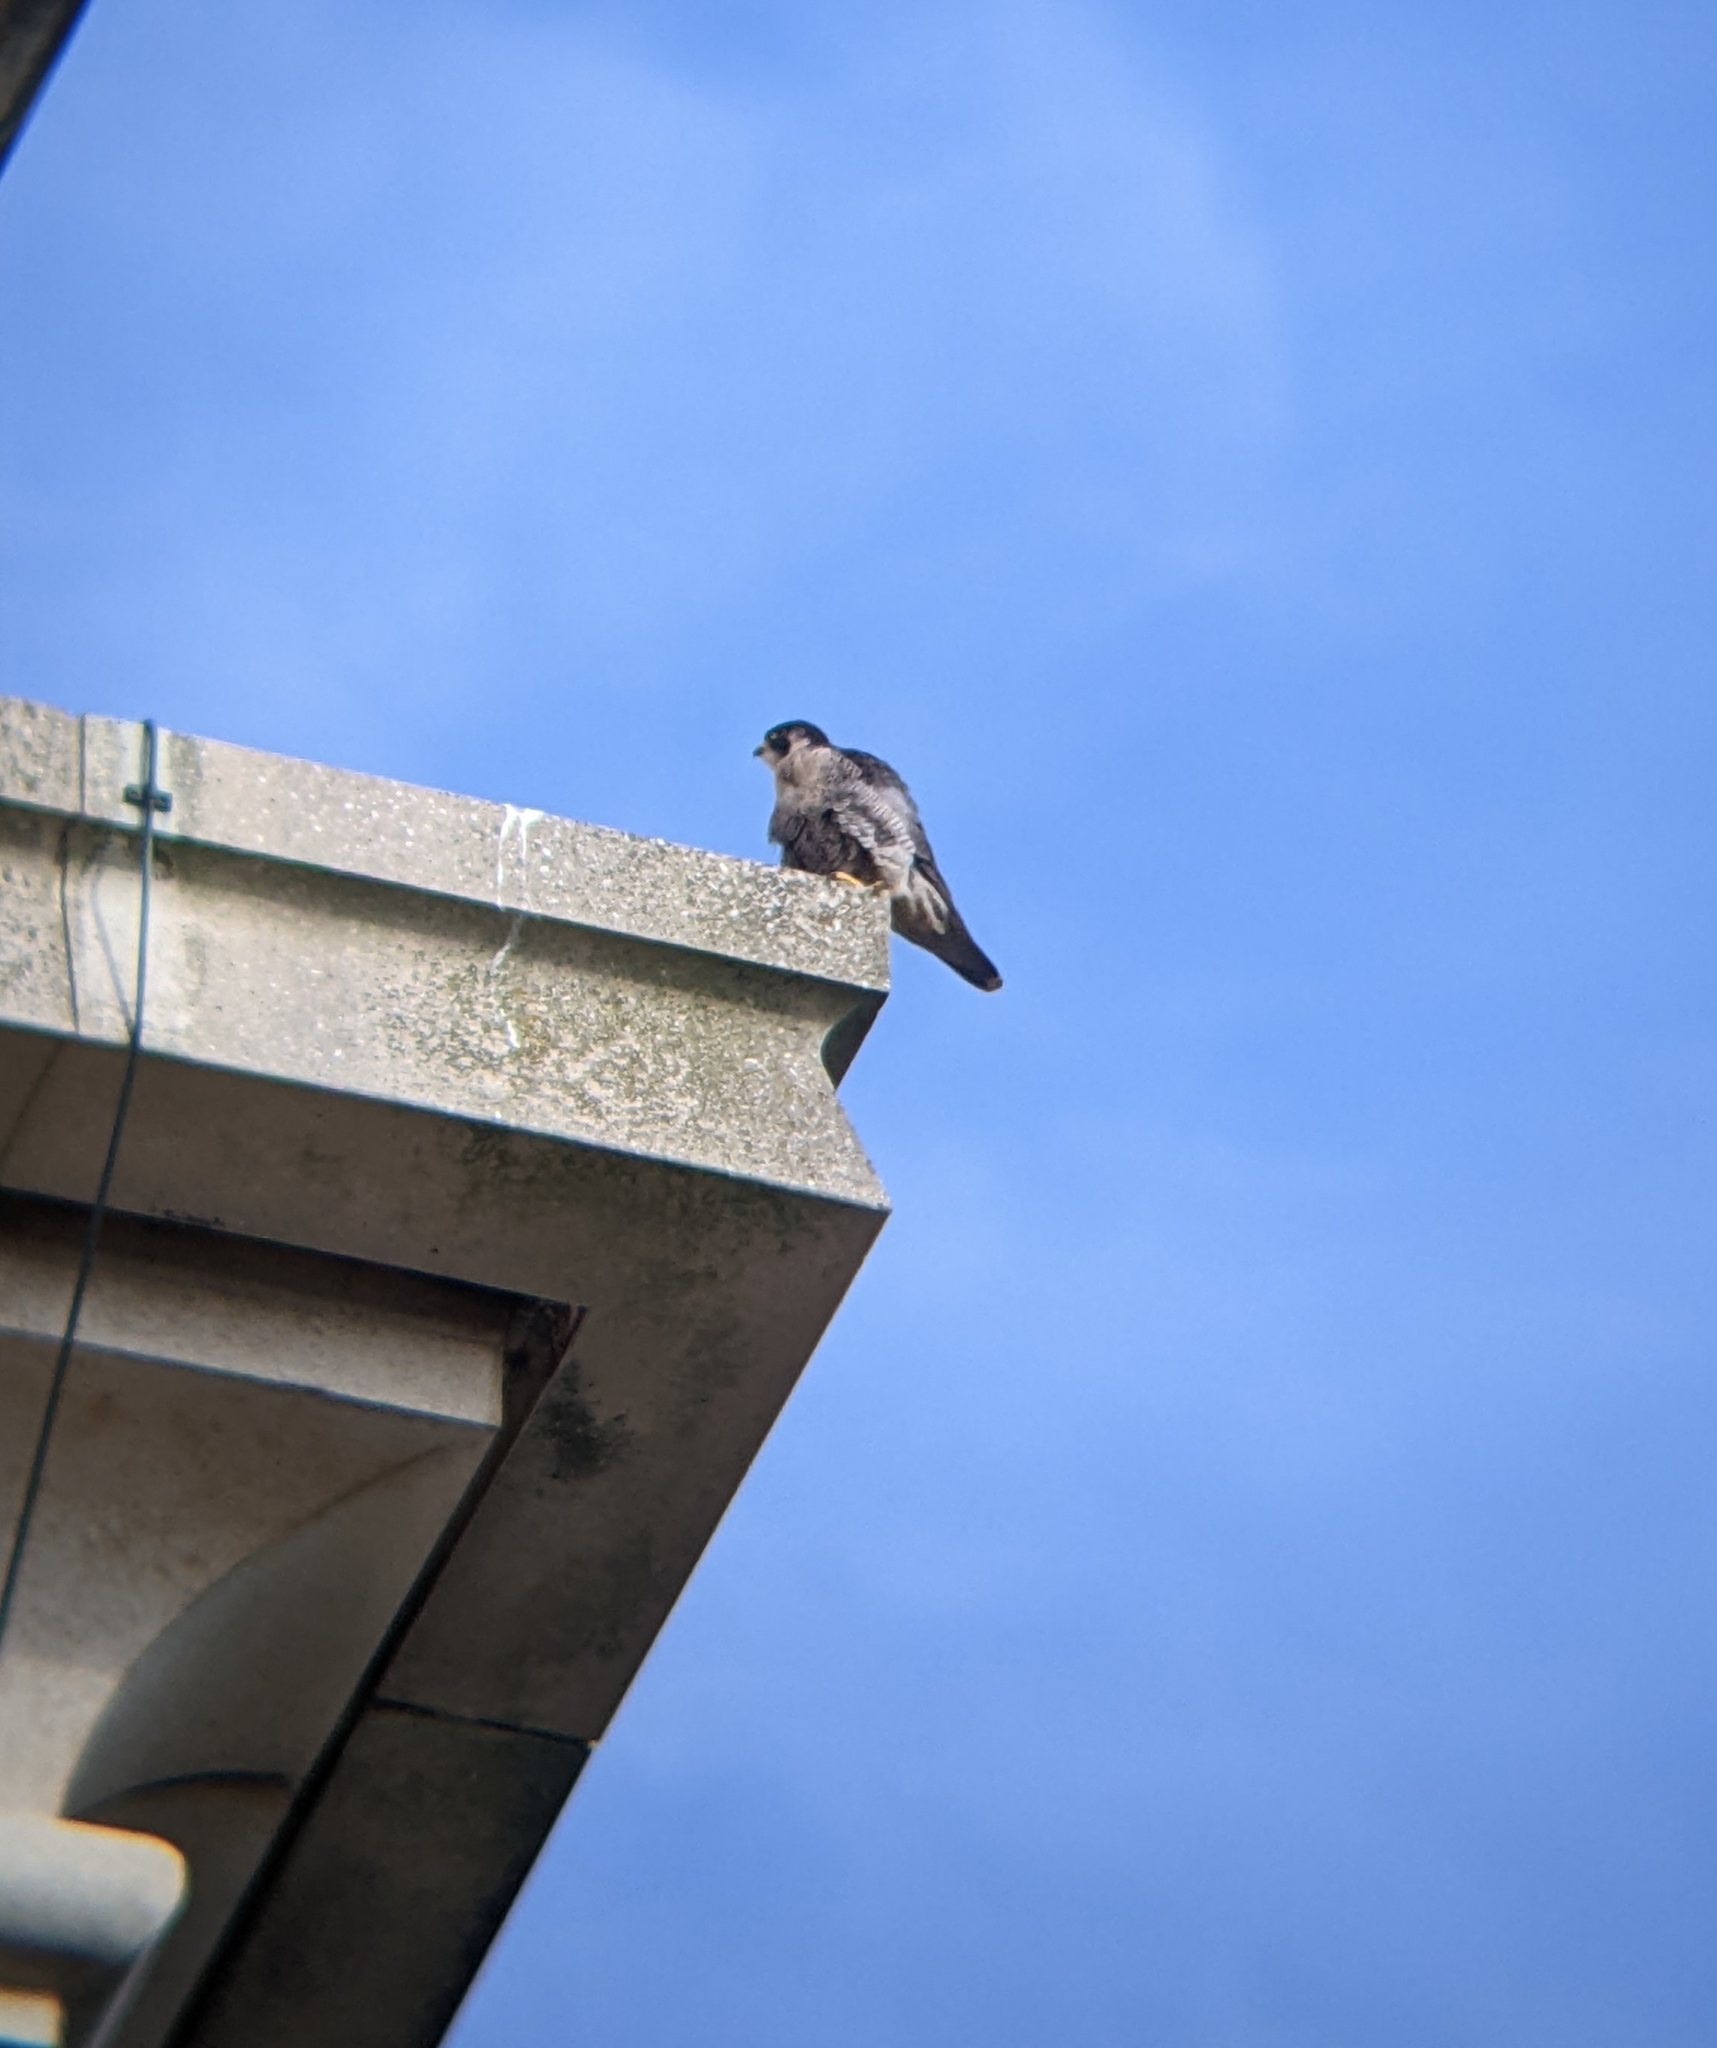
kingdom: Animalia
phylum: Chordata
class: Aves
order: Falconiformes
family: Falconidae
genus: Falco
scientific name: Falco peregrinus
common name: Peregrine falcon
